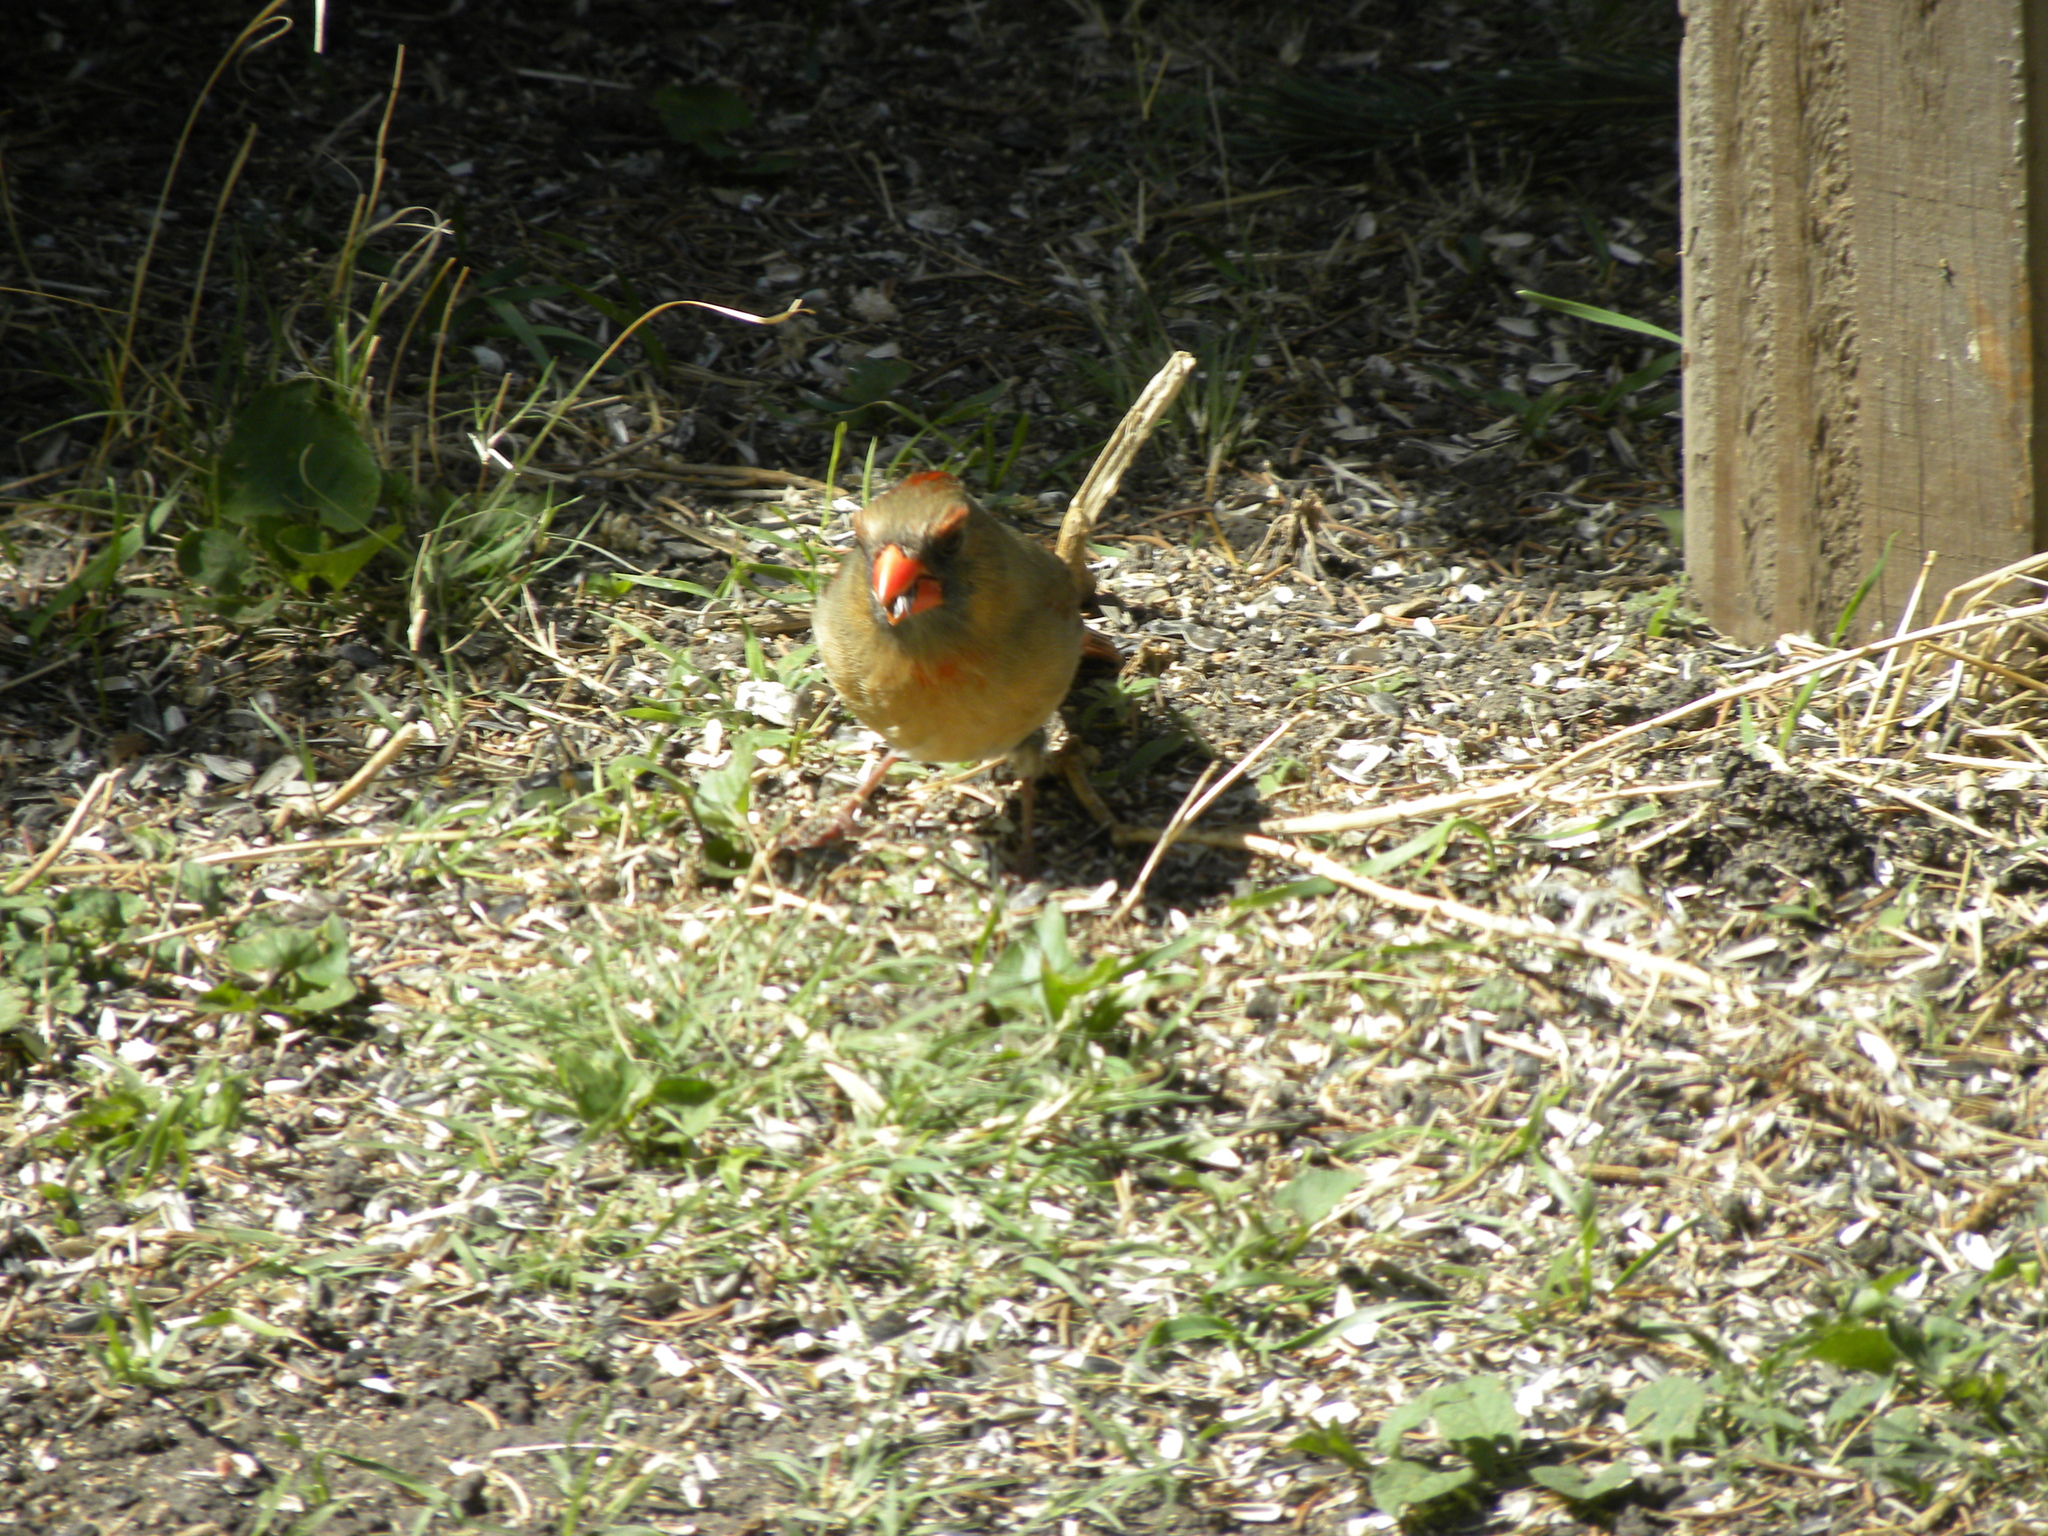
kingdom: Animalia
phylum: Chordata
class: Aves
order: Passeriformes
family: Cardinalidae
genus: Cardinalis
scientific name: Cardinalis cardinalis
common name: Northern cardinal
